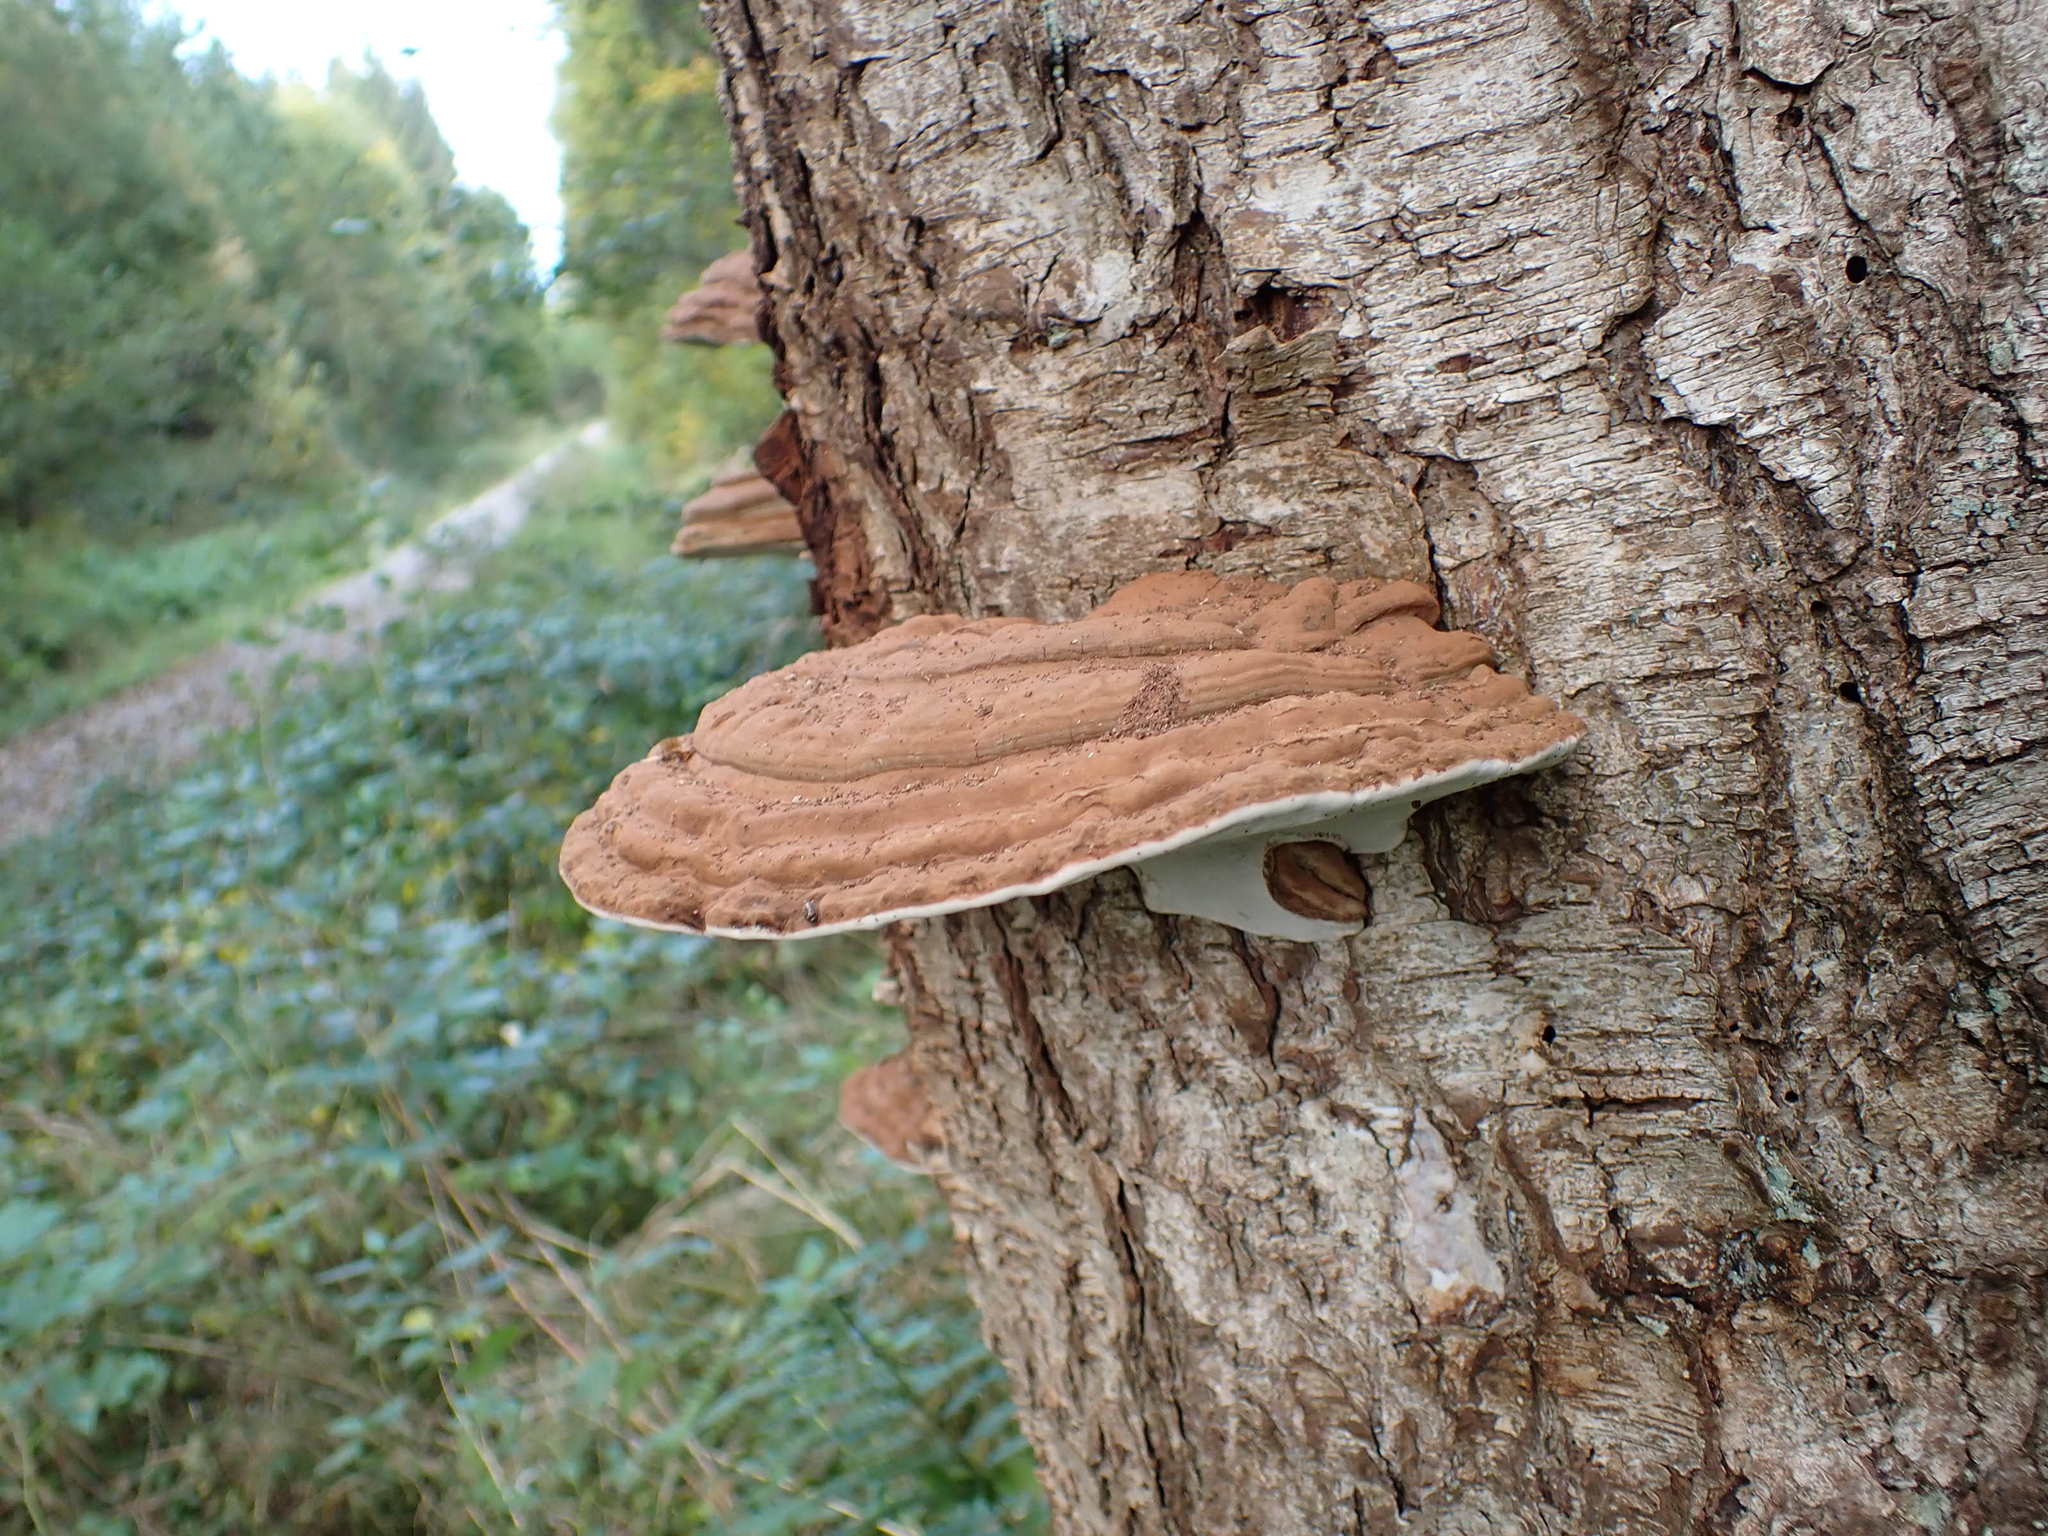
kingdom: Fungi
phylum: Basidiomycota
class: Agaricomycetes
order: Polyporales
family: Polyporaceae
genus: Ganoderma
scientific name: Ganoderma applanatum
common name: Artist's bracket
